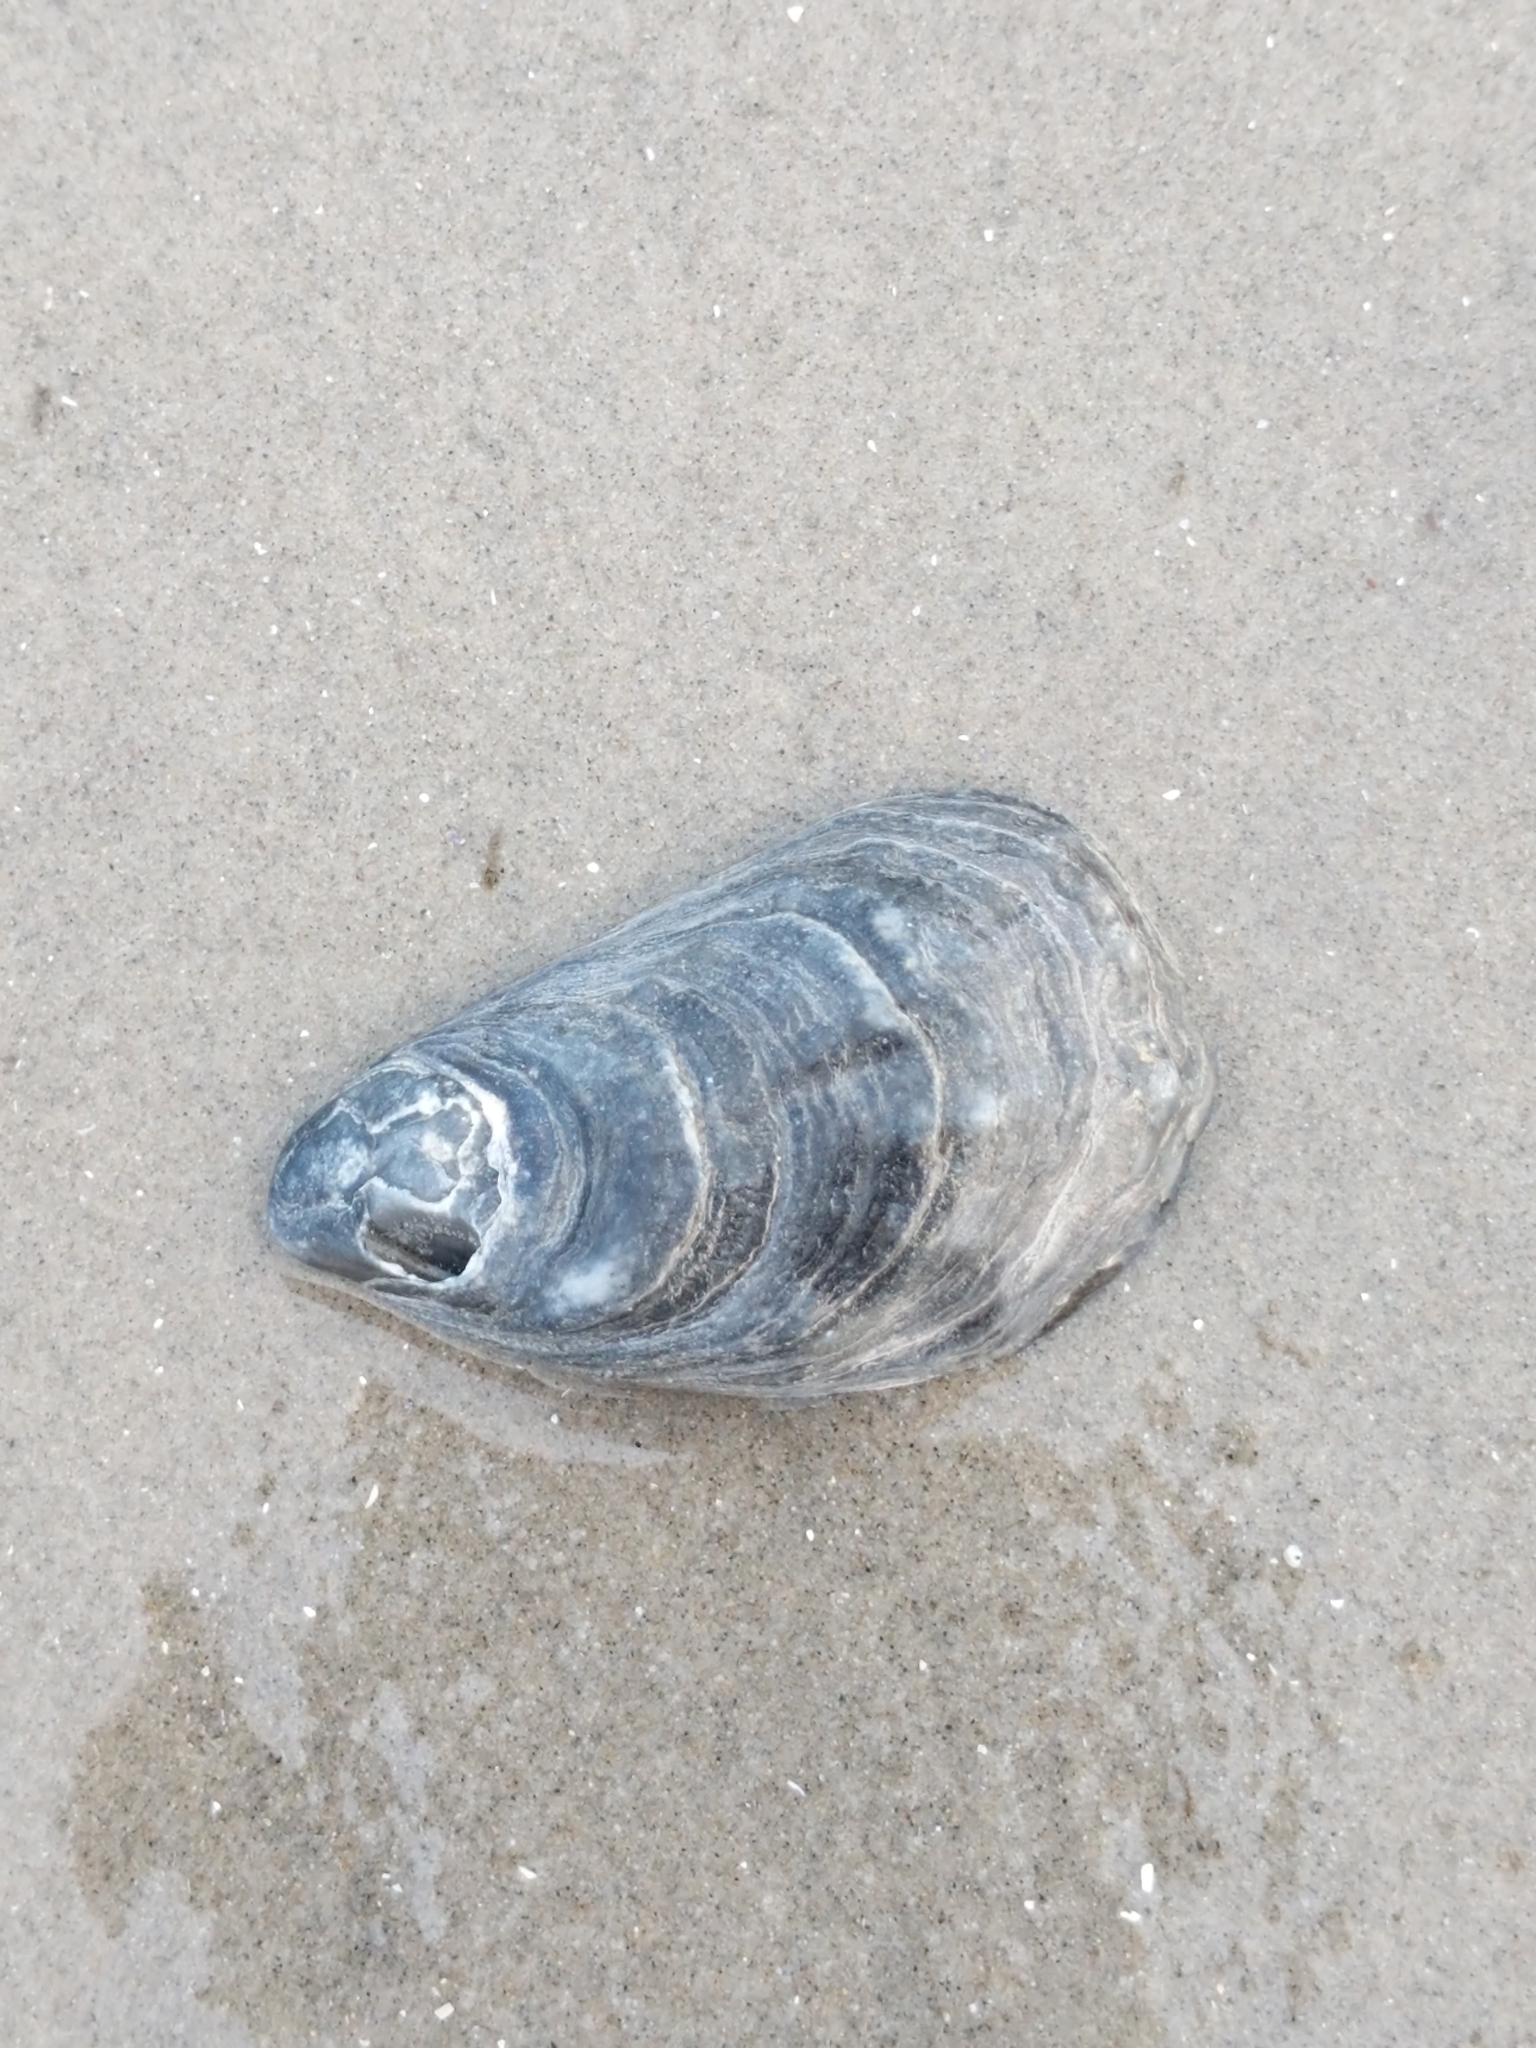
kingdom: Animalia
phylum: Mollusca
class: Bivalvia
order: Ostreida
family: Ostreidae
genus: Crassostrea
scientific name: Crassostrea virginica
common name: American oyster
